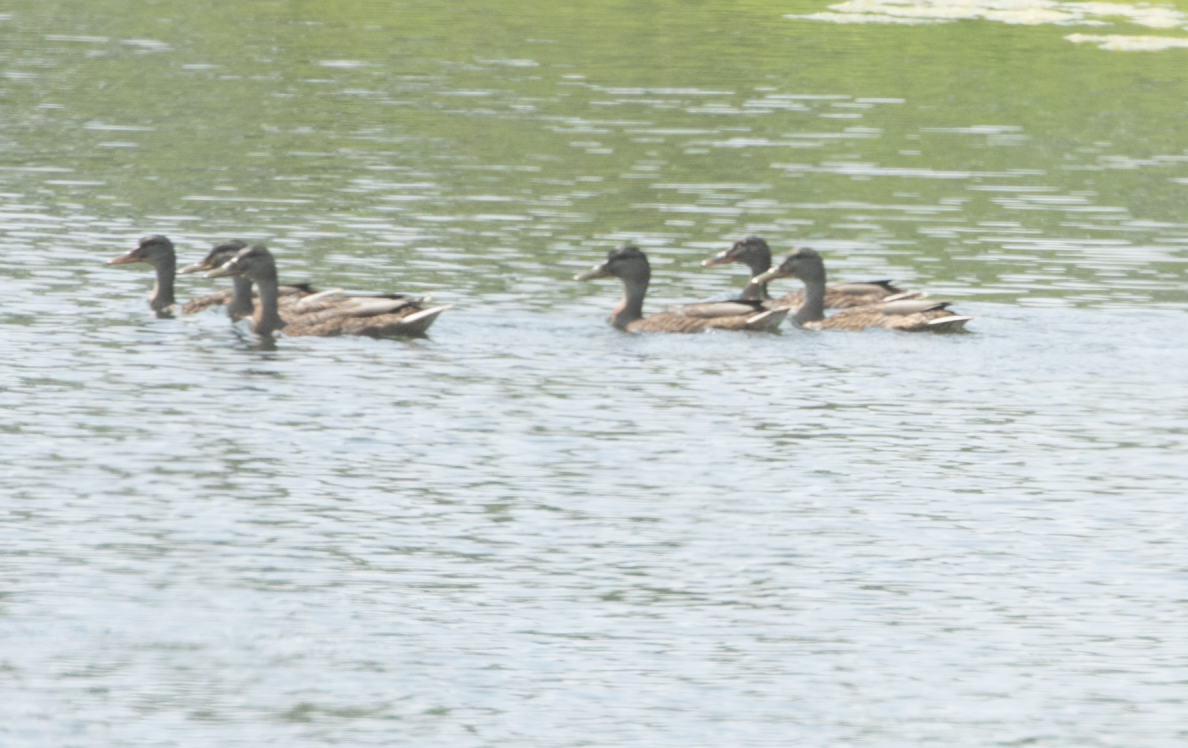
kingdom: Animalia
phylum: Chordata
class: Aves
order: Anseriformes
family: Anatidae
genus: Anas
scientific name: Anas platyrhynchos
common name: Mallard
